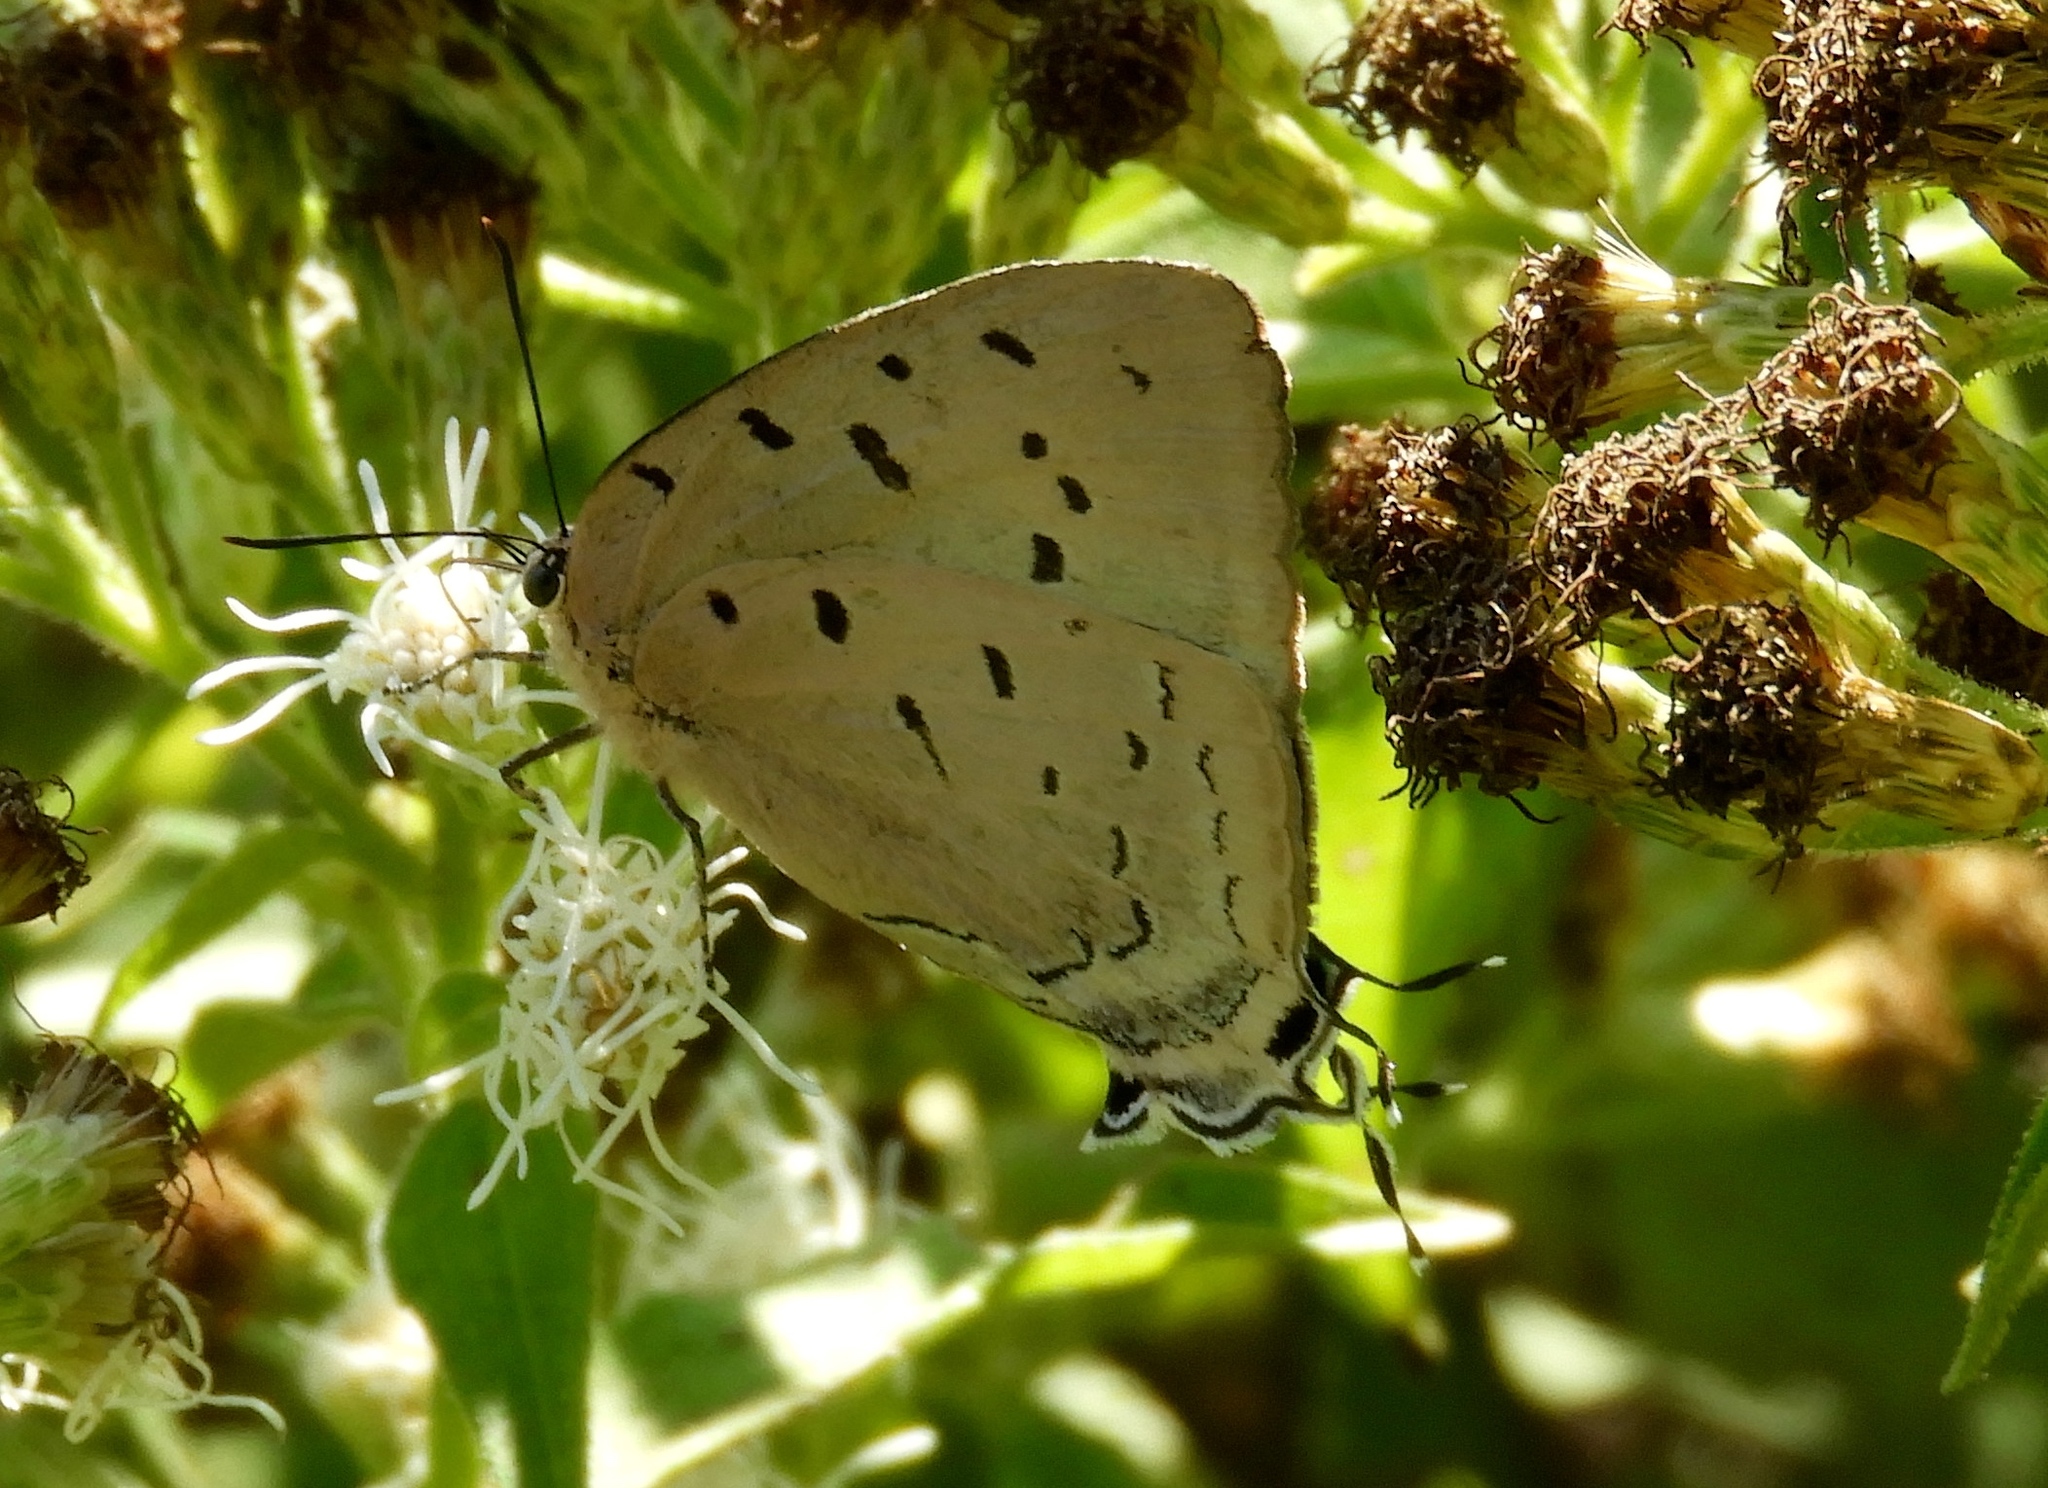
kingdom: Animalia
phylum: Arthropoda
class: Insecta
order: Lepidoptera
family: Lycaenidae
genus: Pseudolycaena
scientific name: Pseudolycaena damo
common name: Sky-blue hairstreak
